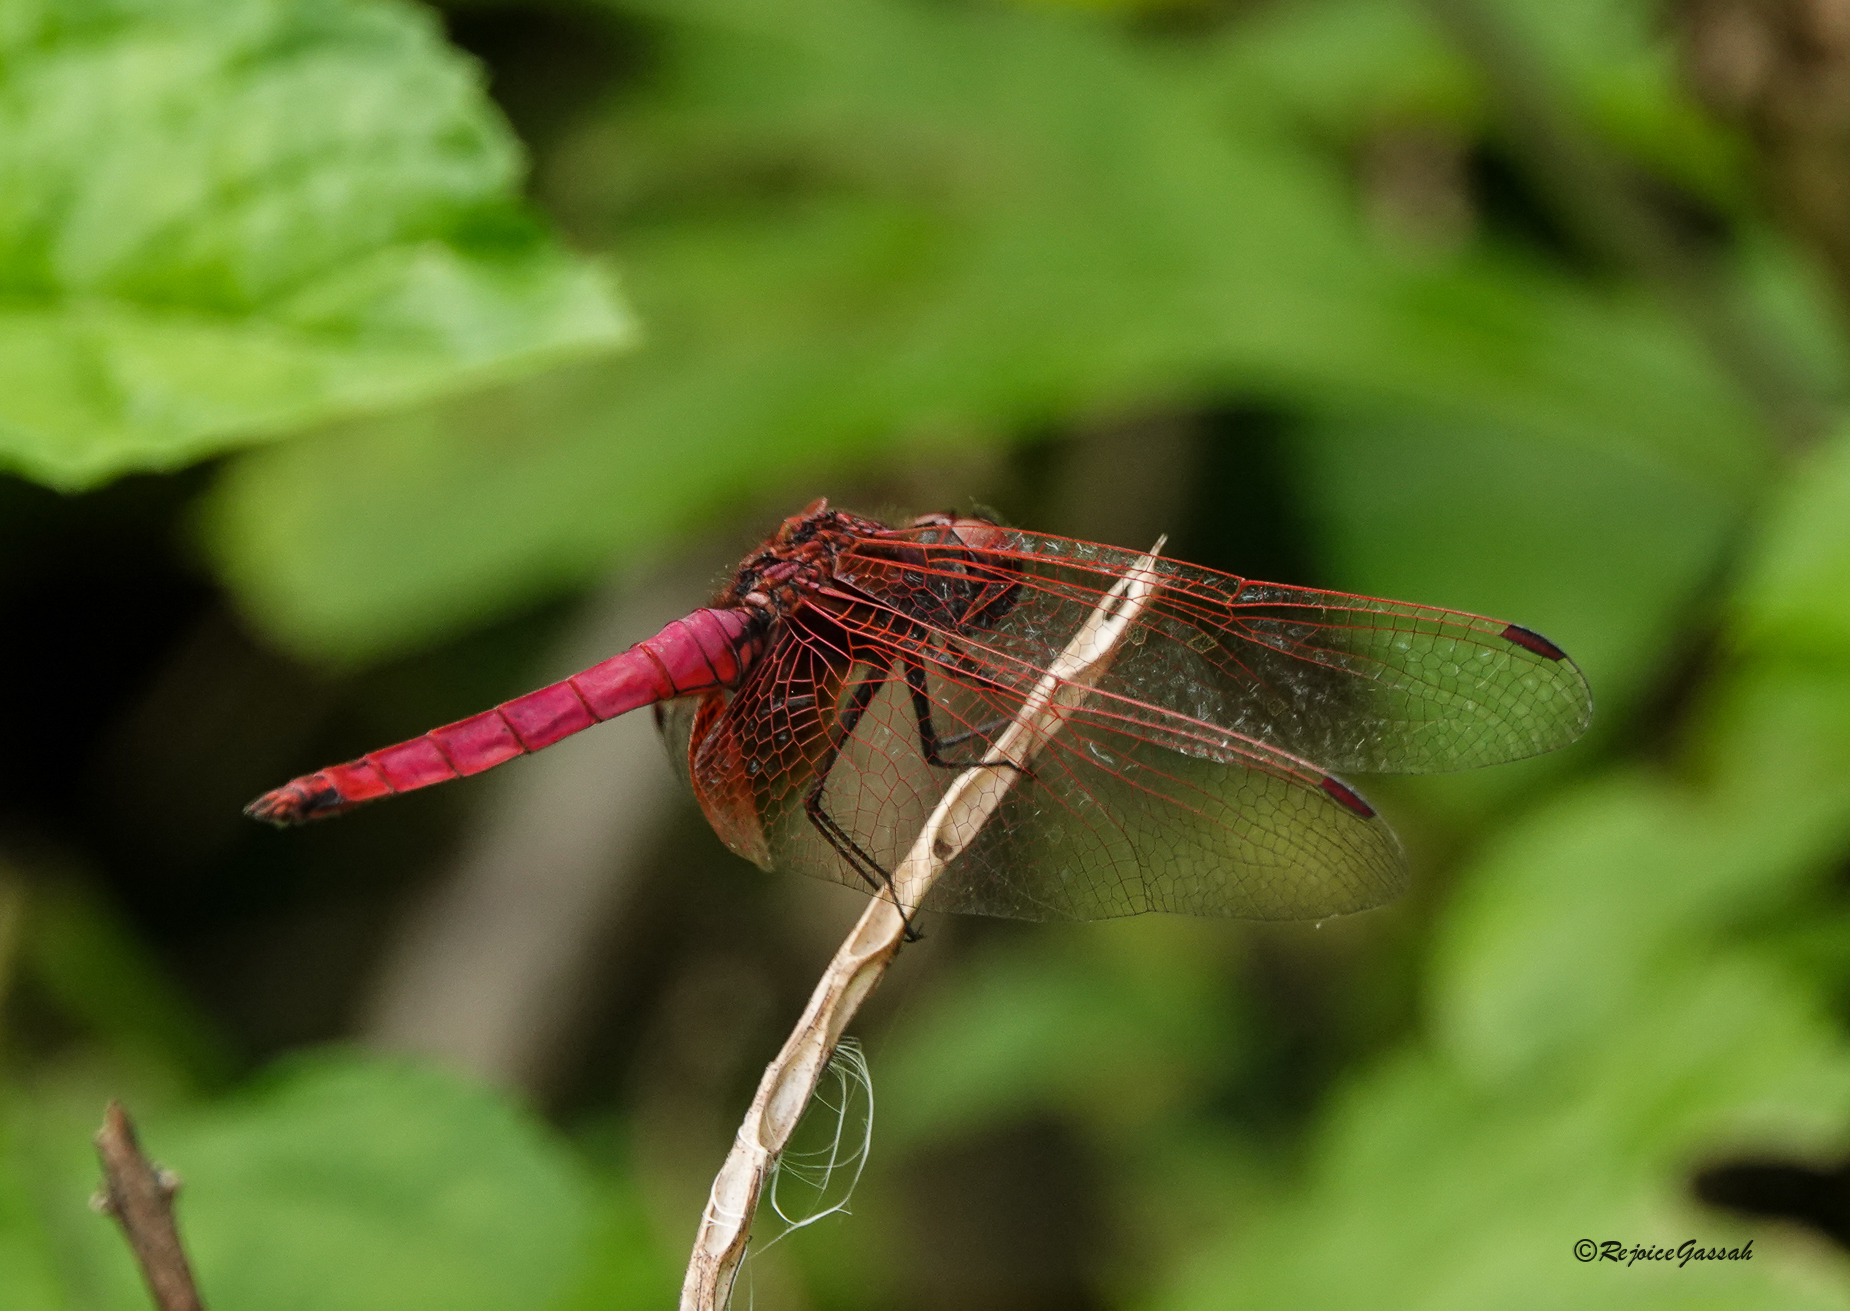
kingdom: Animalia
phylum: Arthropoda
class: Insecta
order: Odonata
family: Libellulidae
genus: Trithemis
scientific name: Trithemis aurora
